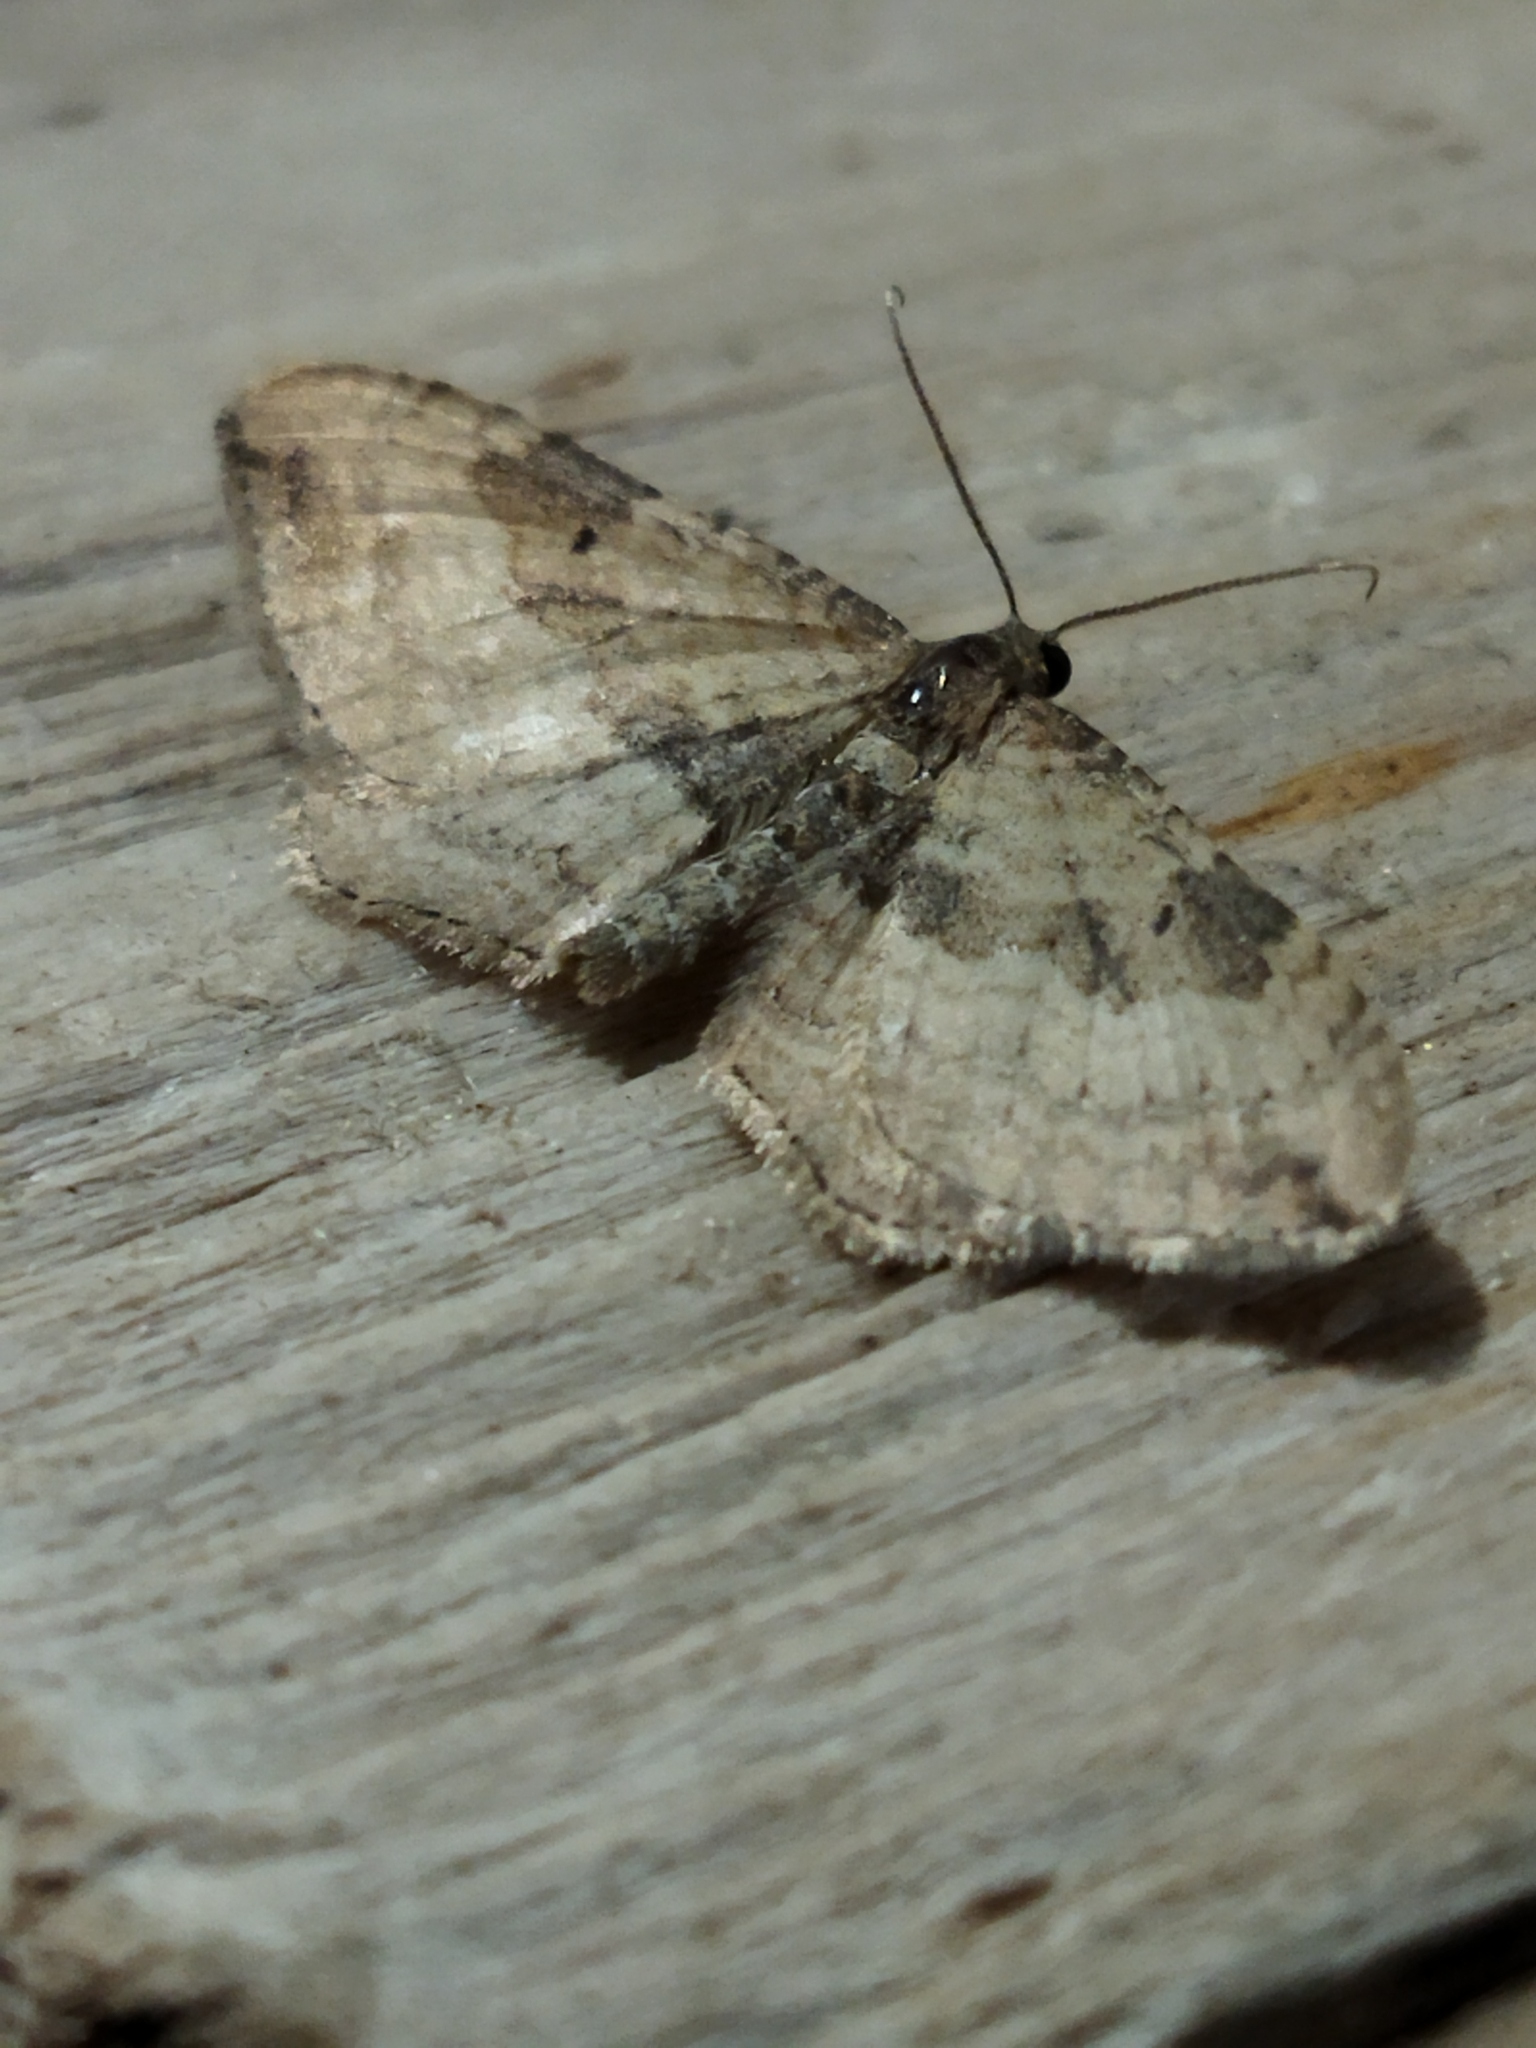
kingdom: Animalia
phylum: Arthropoda
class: Insecta
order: Lepidoptera
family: Geometridae
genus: Orthonama
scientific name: Orthonama obstipata
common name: The gem
